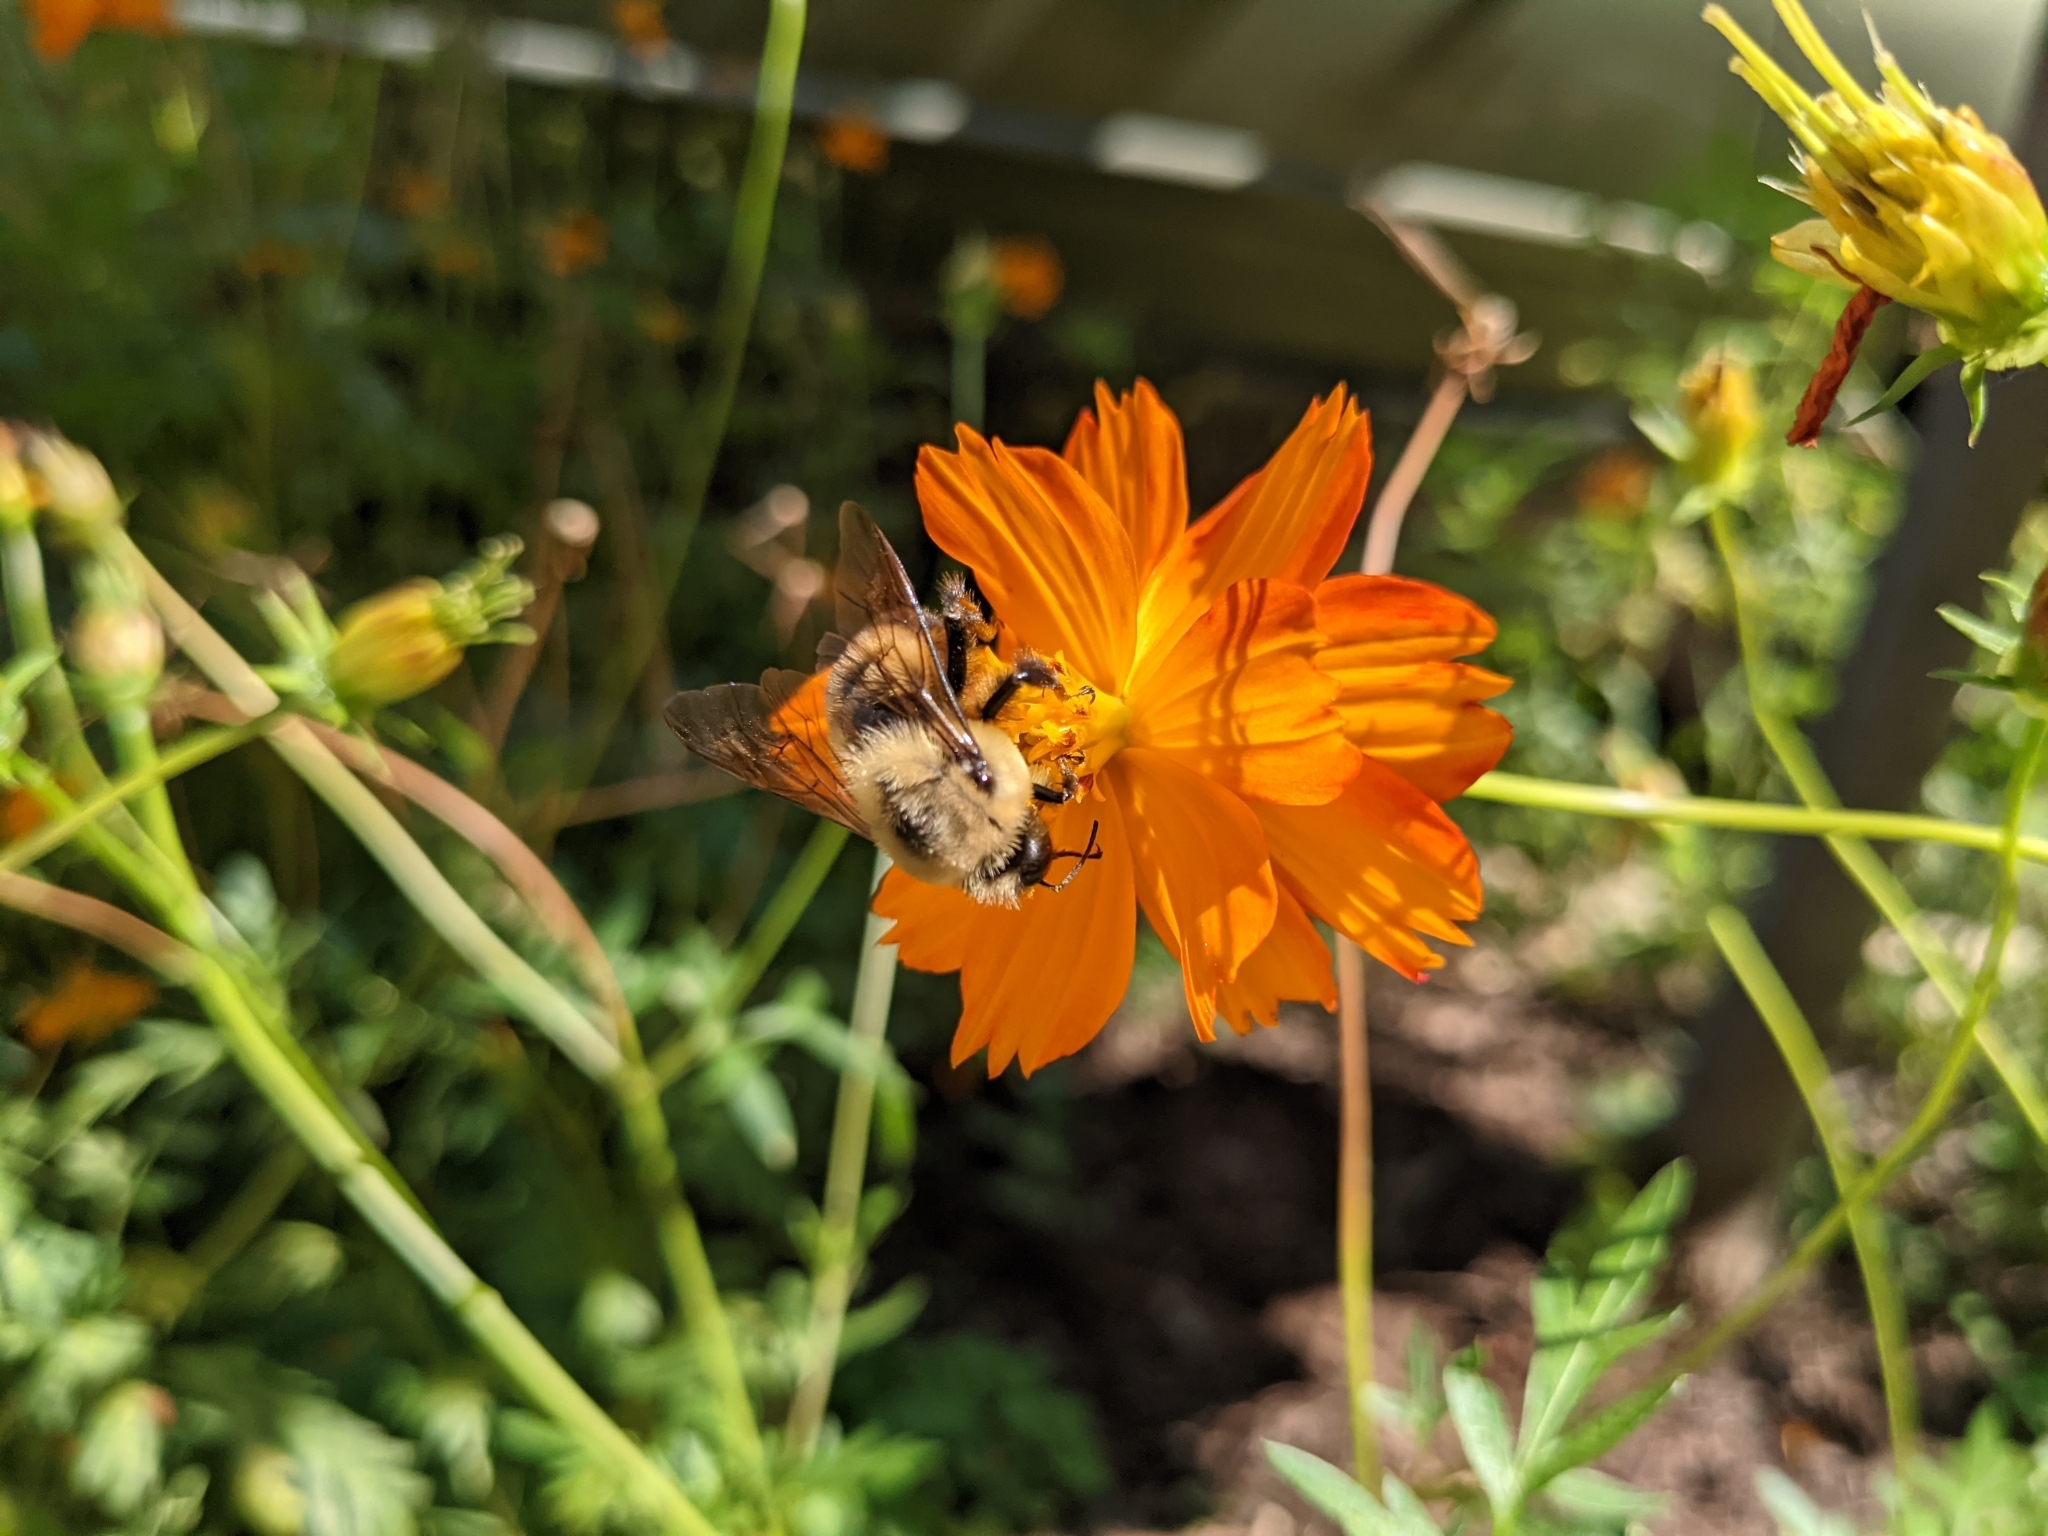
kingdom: Animalia
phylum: Arthropoda
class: Insecta
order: Hymenoptera
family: Apidae
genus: Bombus
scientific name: Bombus griseocollis
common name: Brown-belted bumble bee
